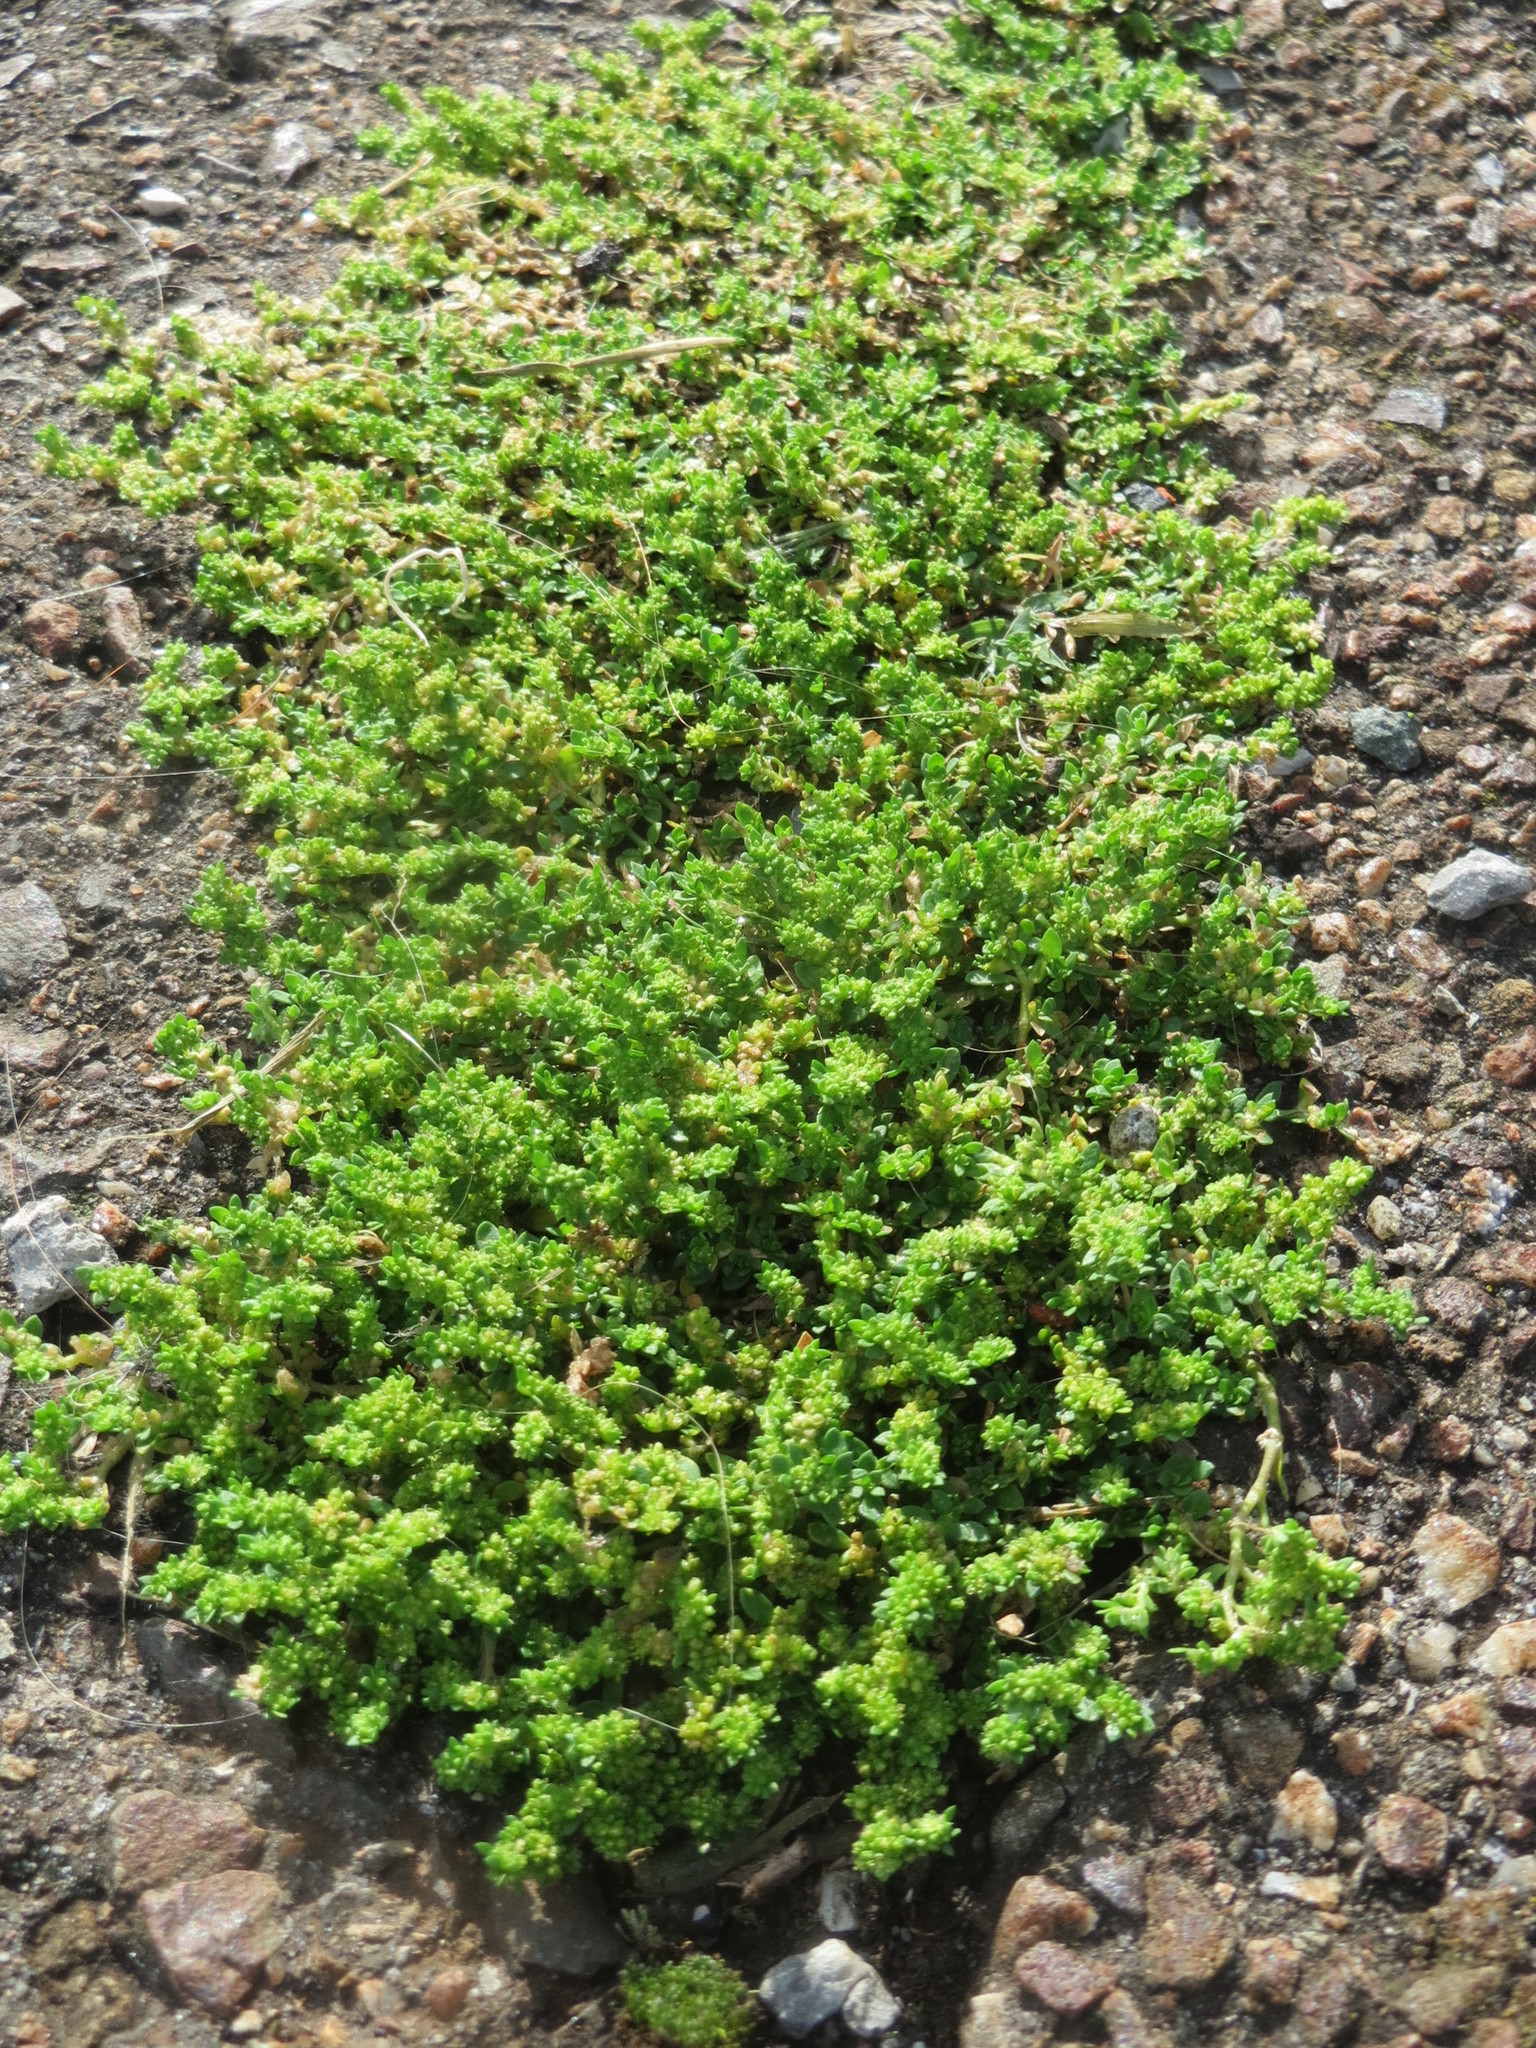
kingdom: Plantae
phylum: Tracheophyta
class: Magnoliopsida
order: Caryophyllales
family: Caryophyllaceae
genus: Herniaria
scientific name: Herniaria glabra
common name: Smooth rupturewort
